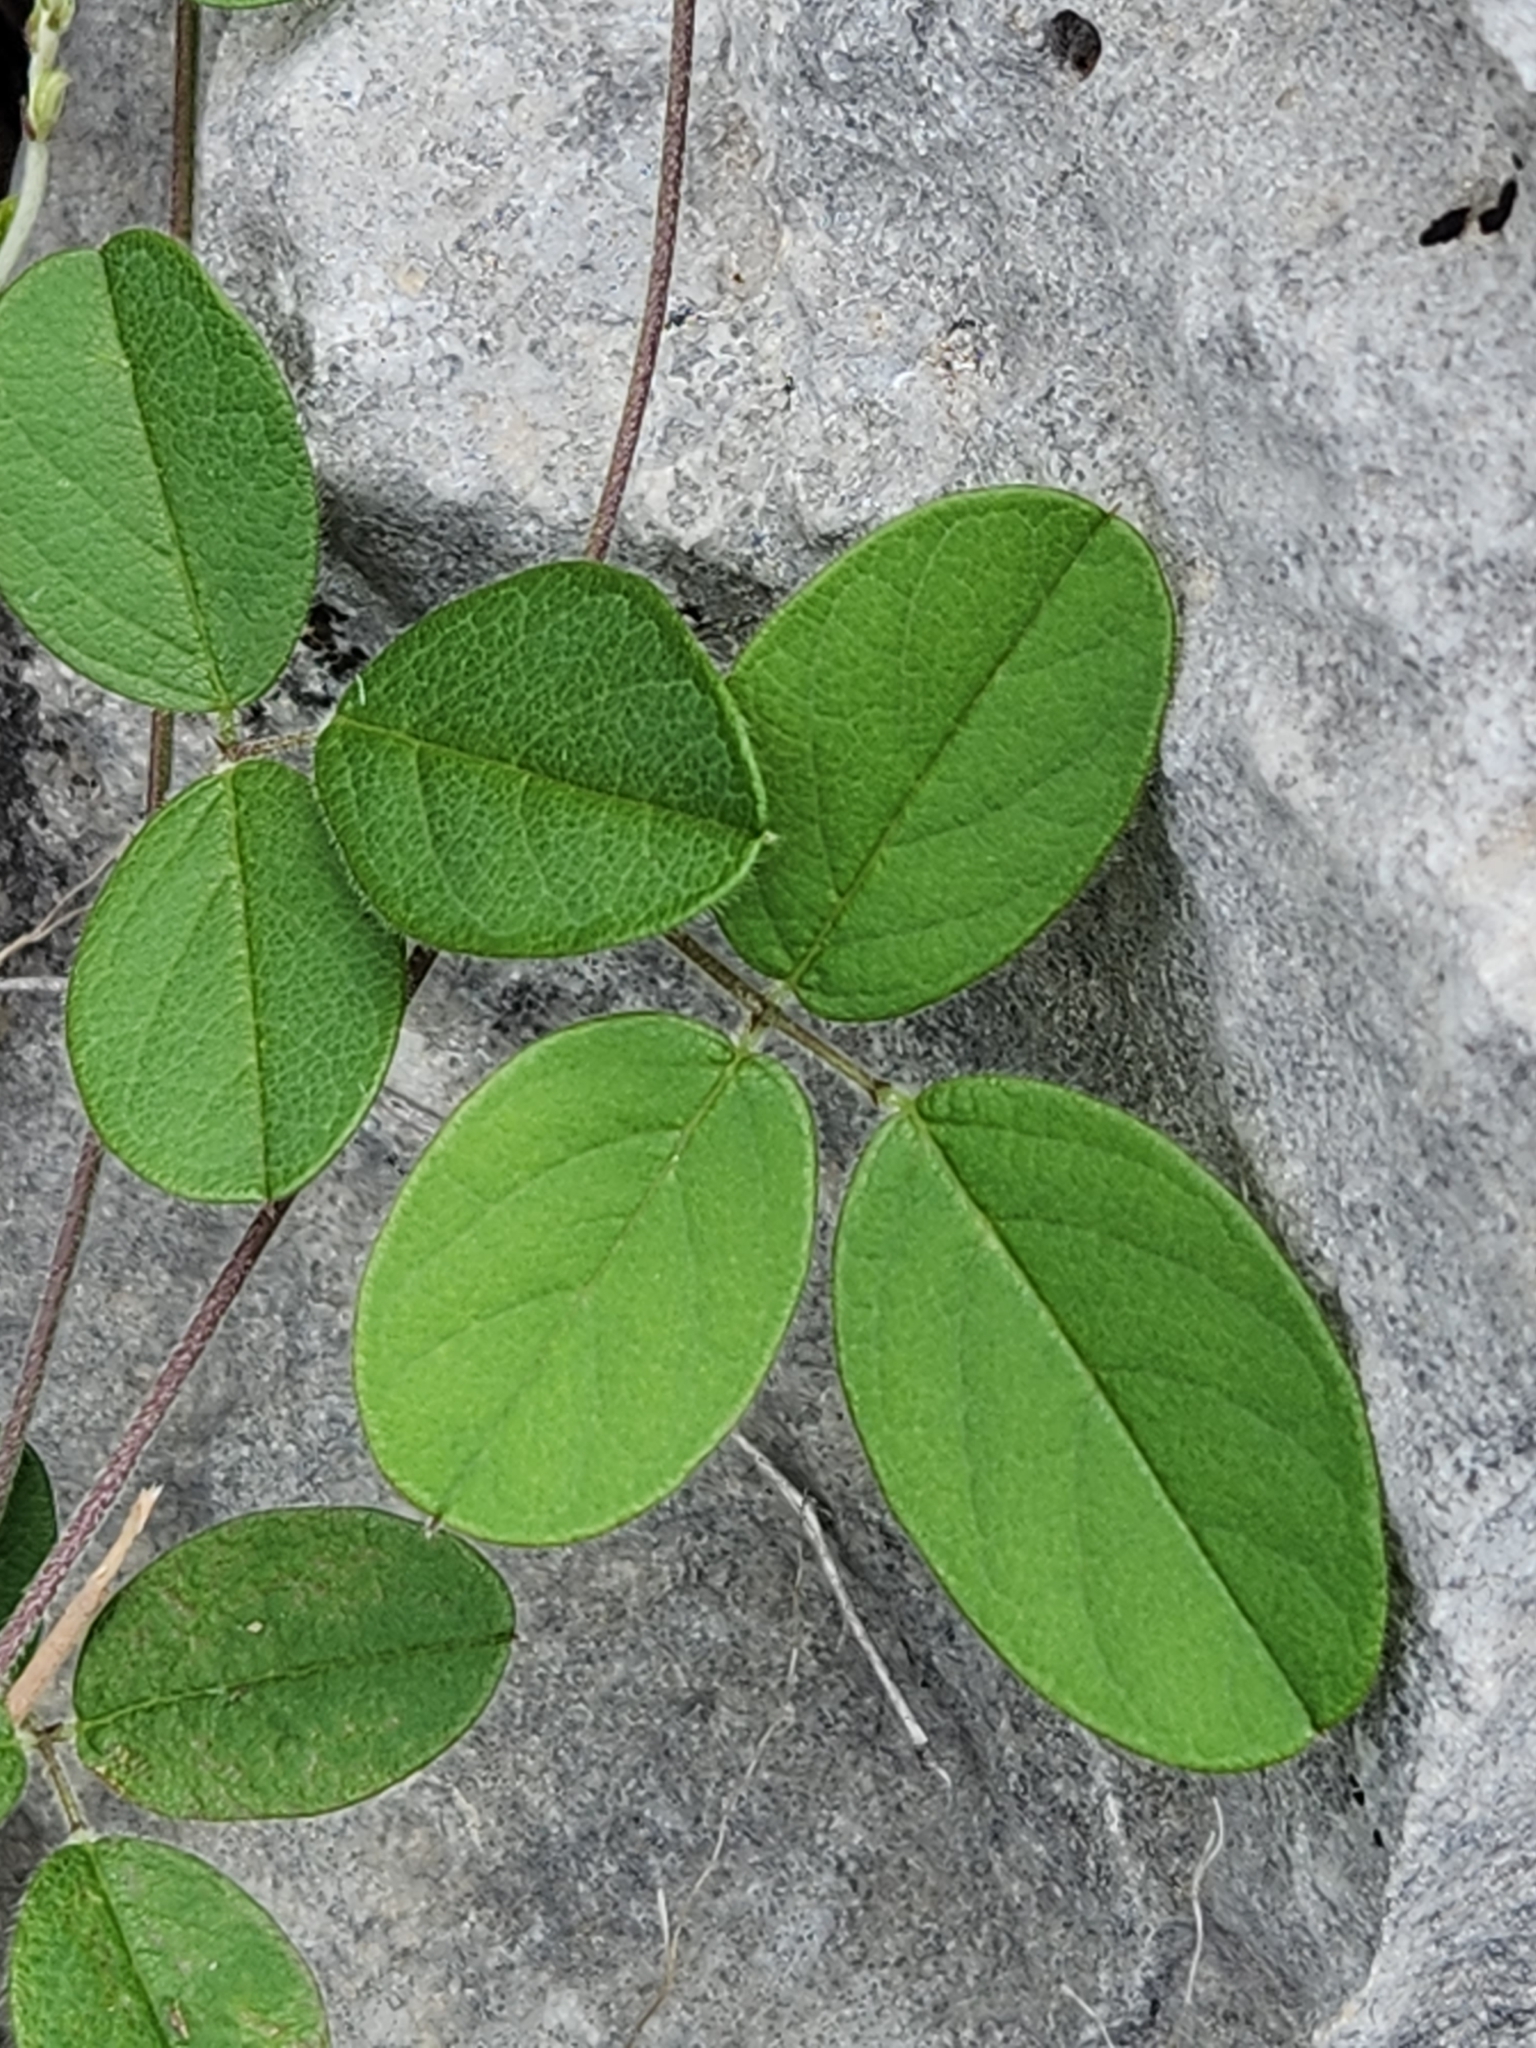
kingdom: Plantae
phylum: Tracheophyta
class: Magnoliopsida
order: Fabales
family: Fabaceae
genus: Galactia
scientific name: Galactia regularis
